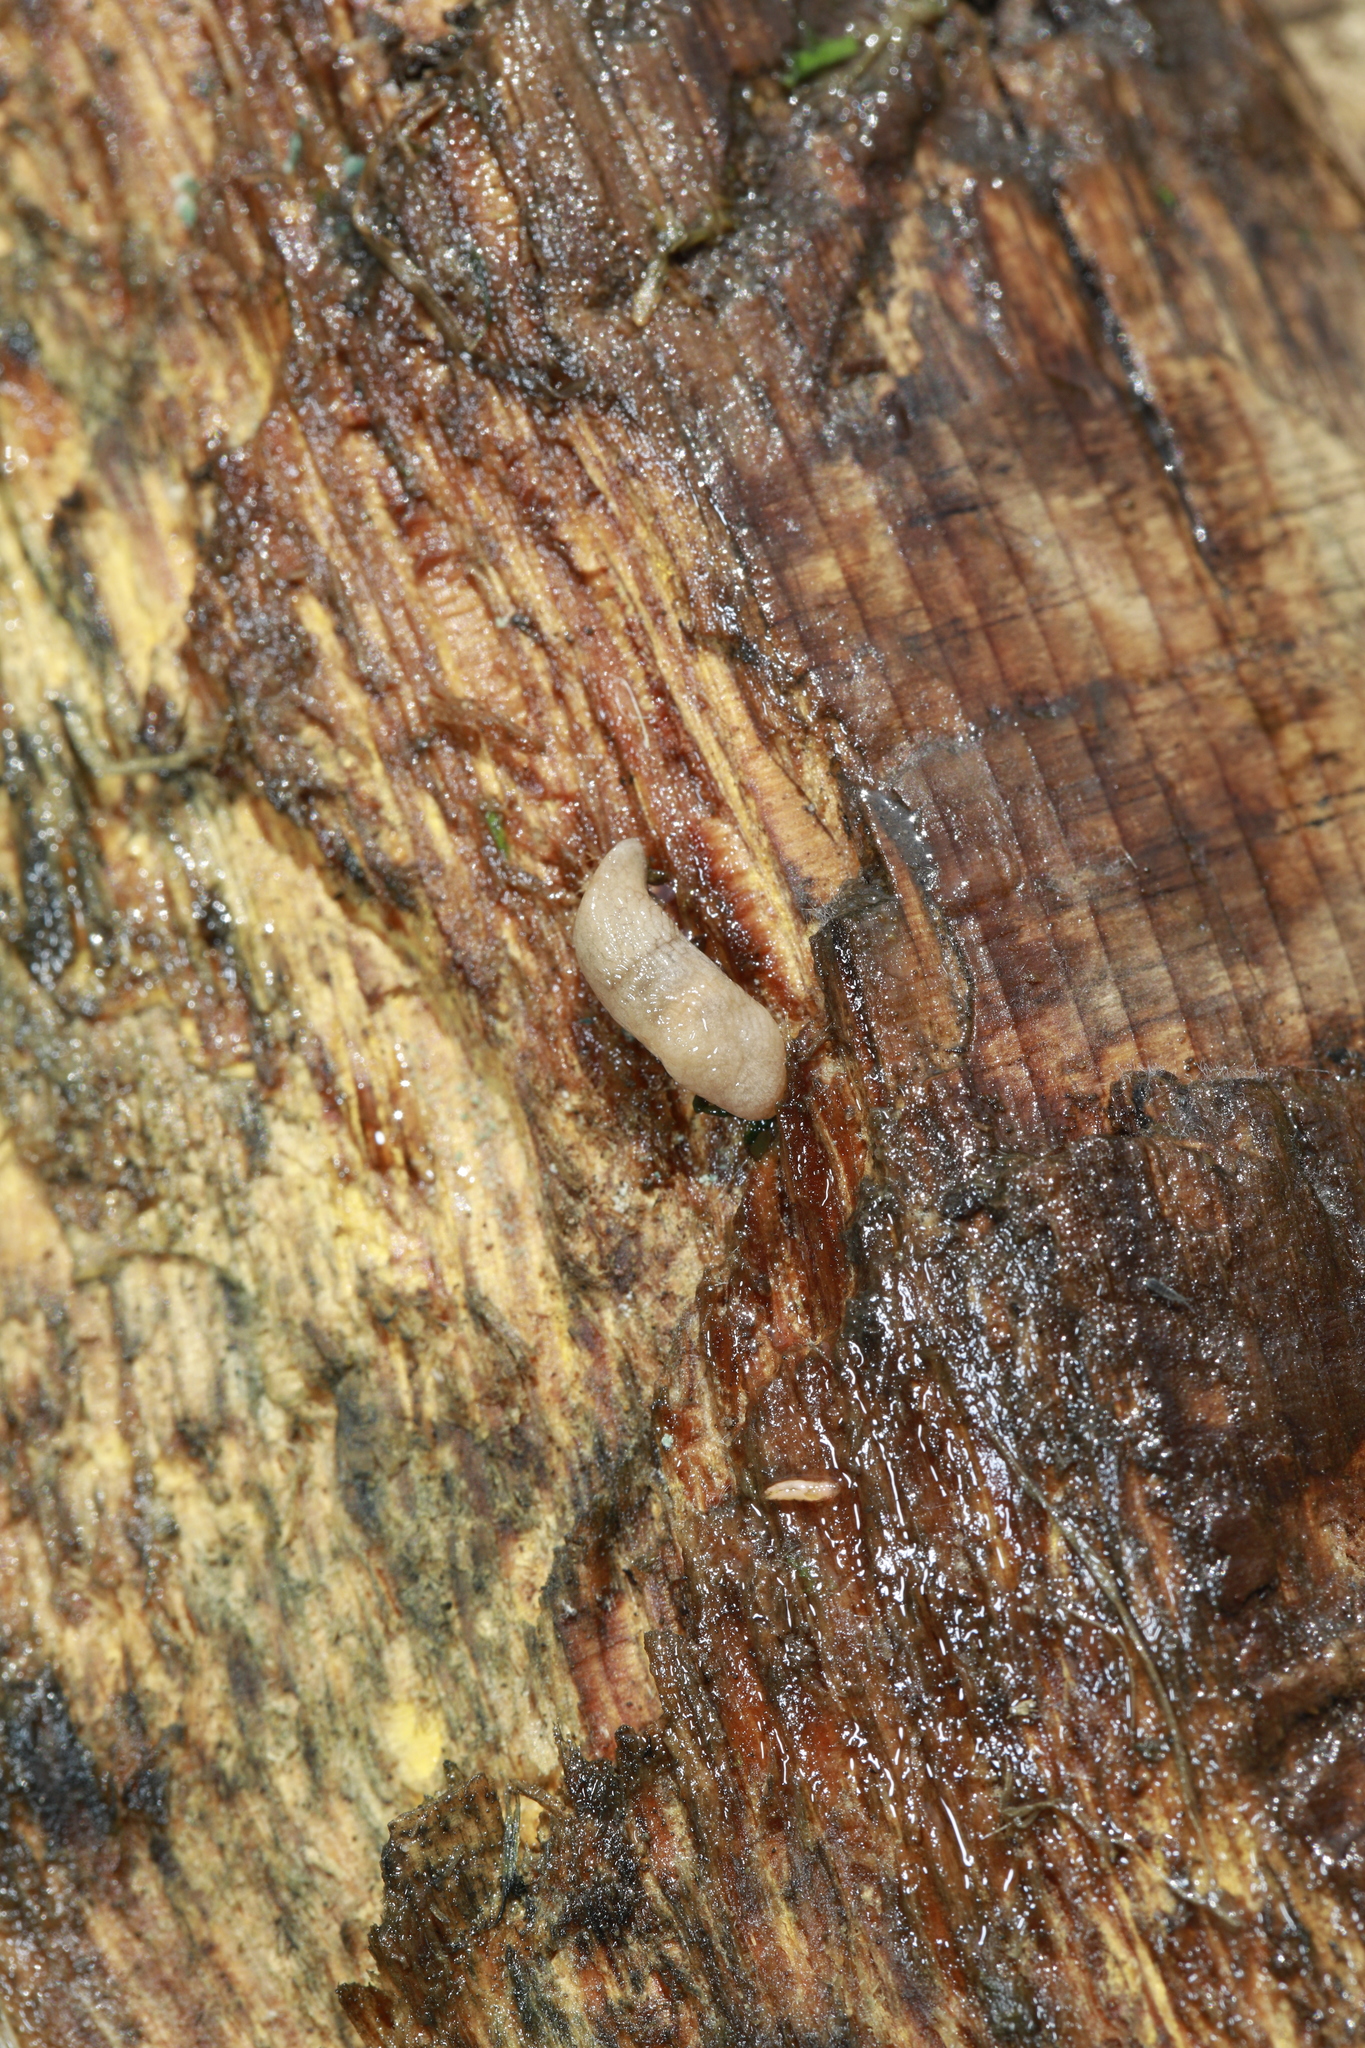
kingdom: Animalia
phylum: Mollusca
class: Gastropoda
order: Stylommatophora
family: Agriolimacidae
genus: Deroceras
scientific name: Deroceras reticulatum
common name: Gray field slug
